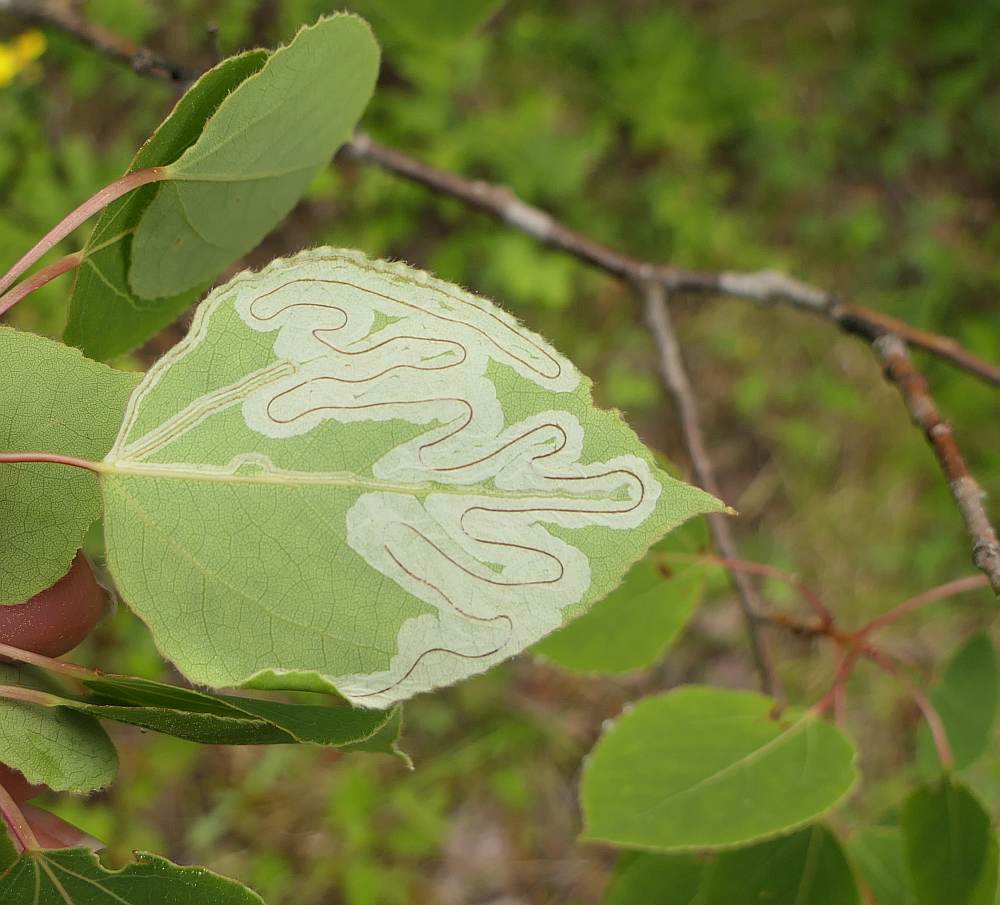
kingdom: Animalia
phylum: Arthropoda
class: Insecta
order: Lepidoptera
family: Gracillariidae
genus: Phyllocnistis
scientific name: Phyllocnistis populiella
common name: Aspen serpentine leafminer moth
